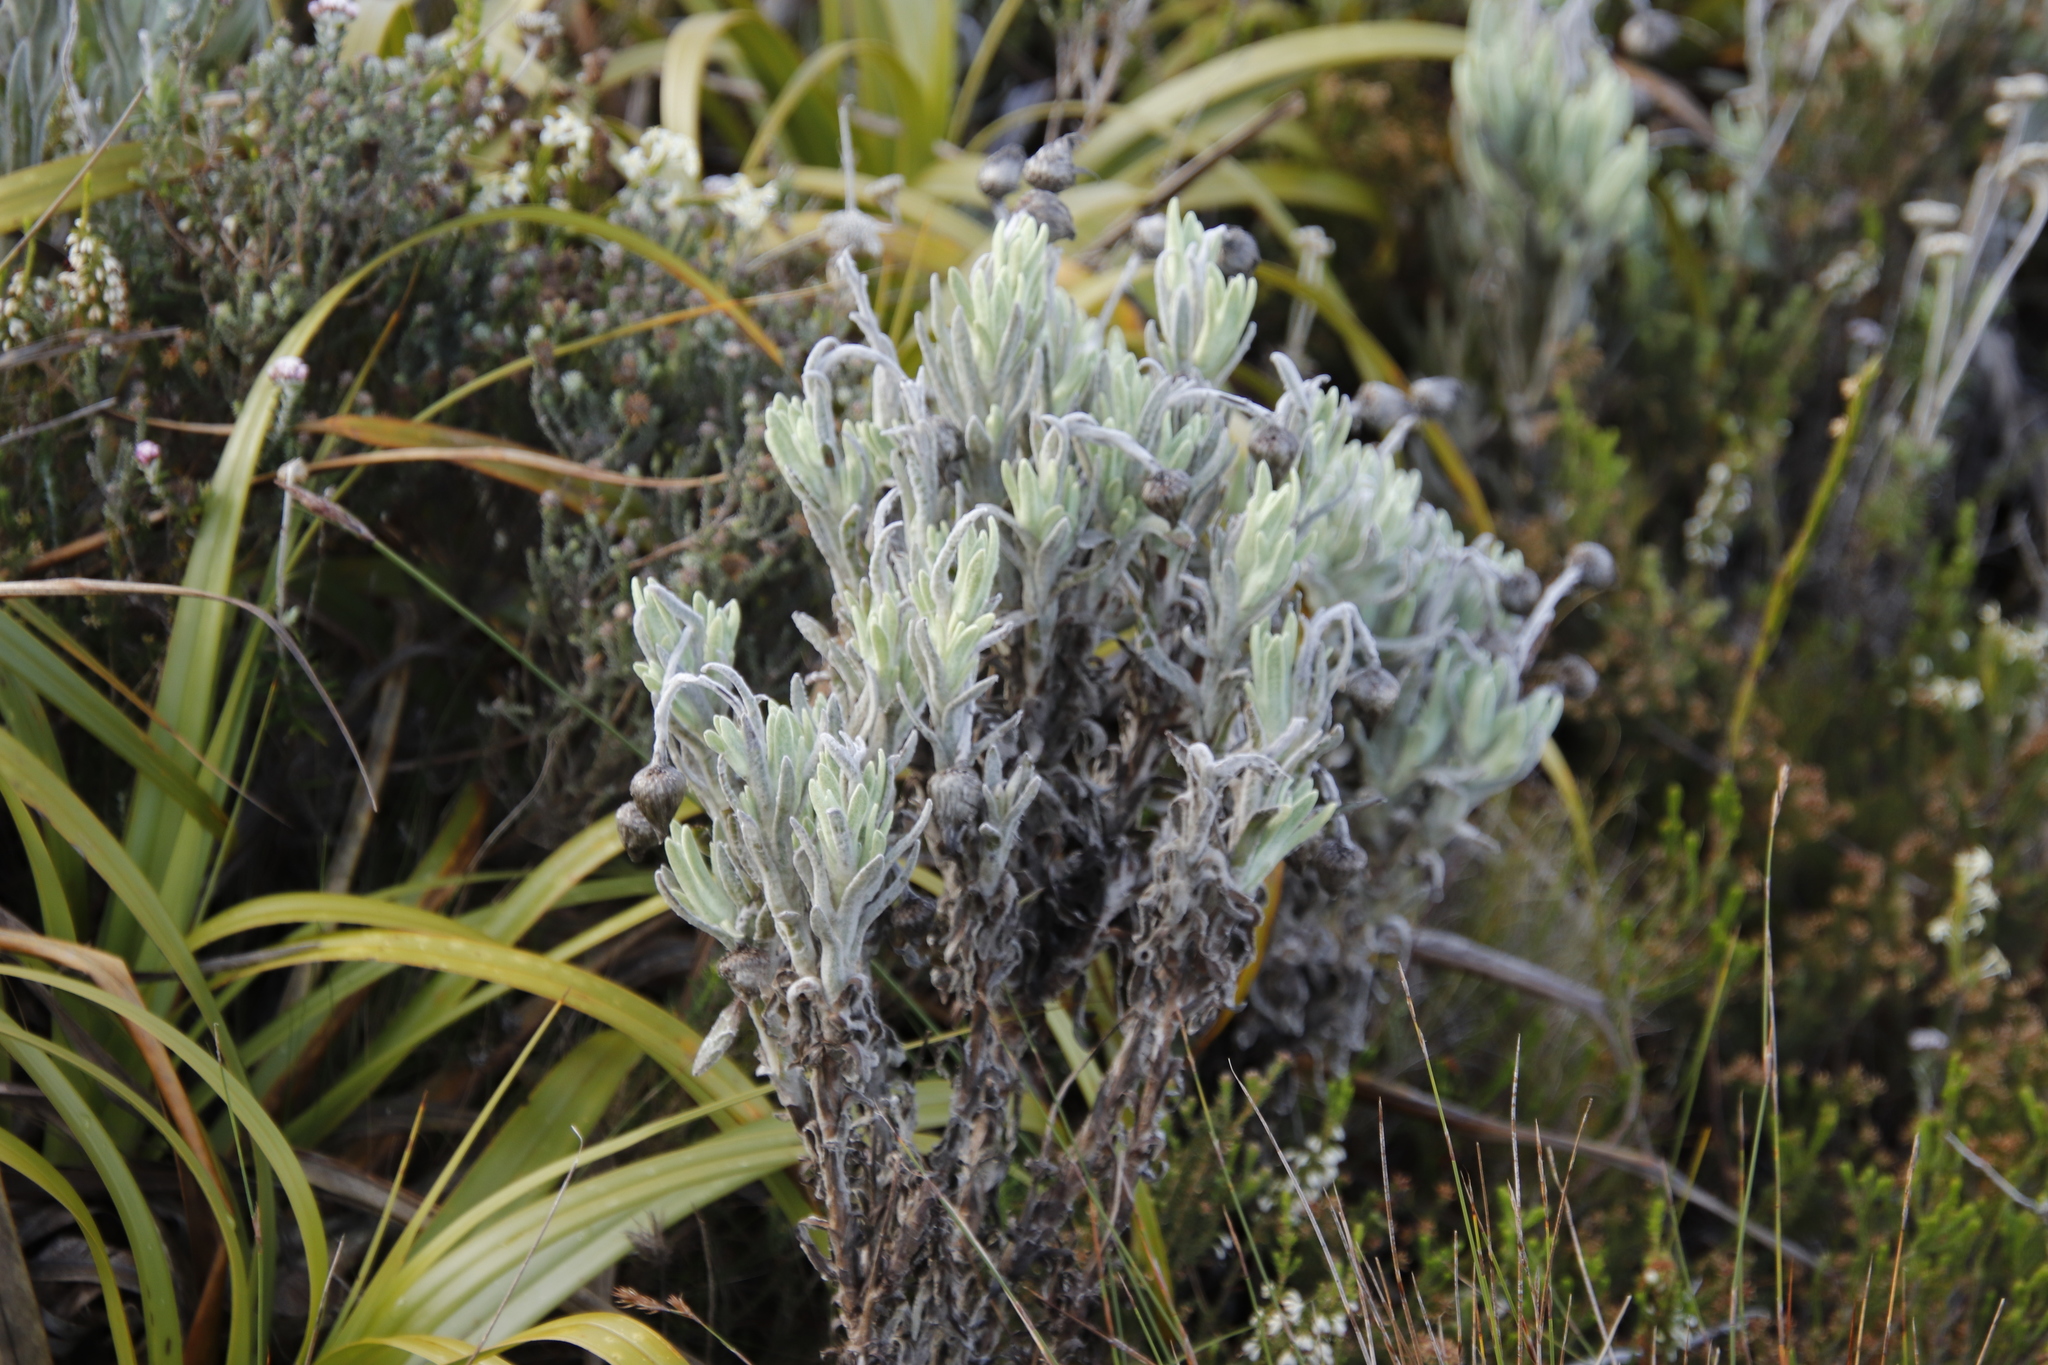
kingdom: Plantae
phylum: Tracheophyta
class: Magnoliopsida
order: Asterales
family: Asteraceae
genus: Syncarpha
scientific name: Syncarpha vestita
